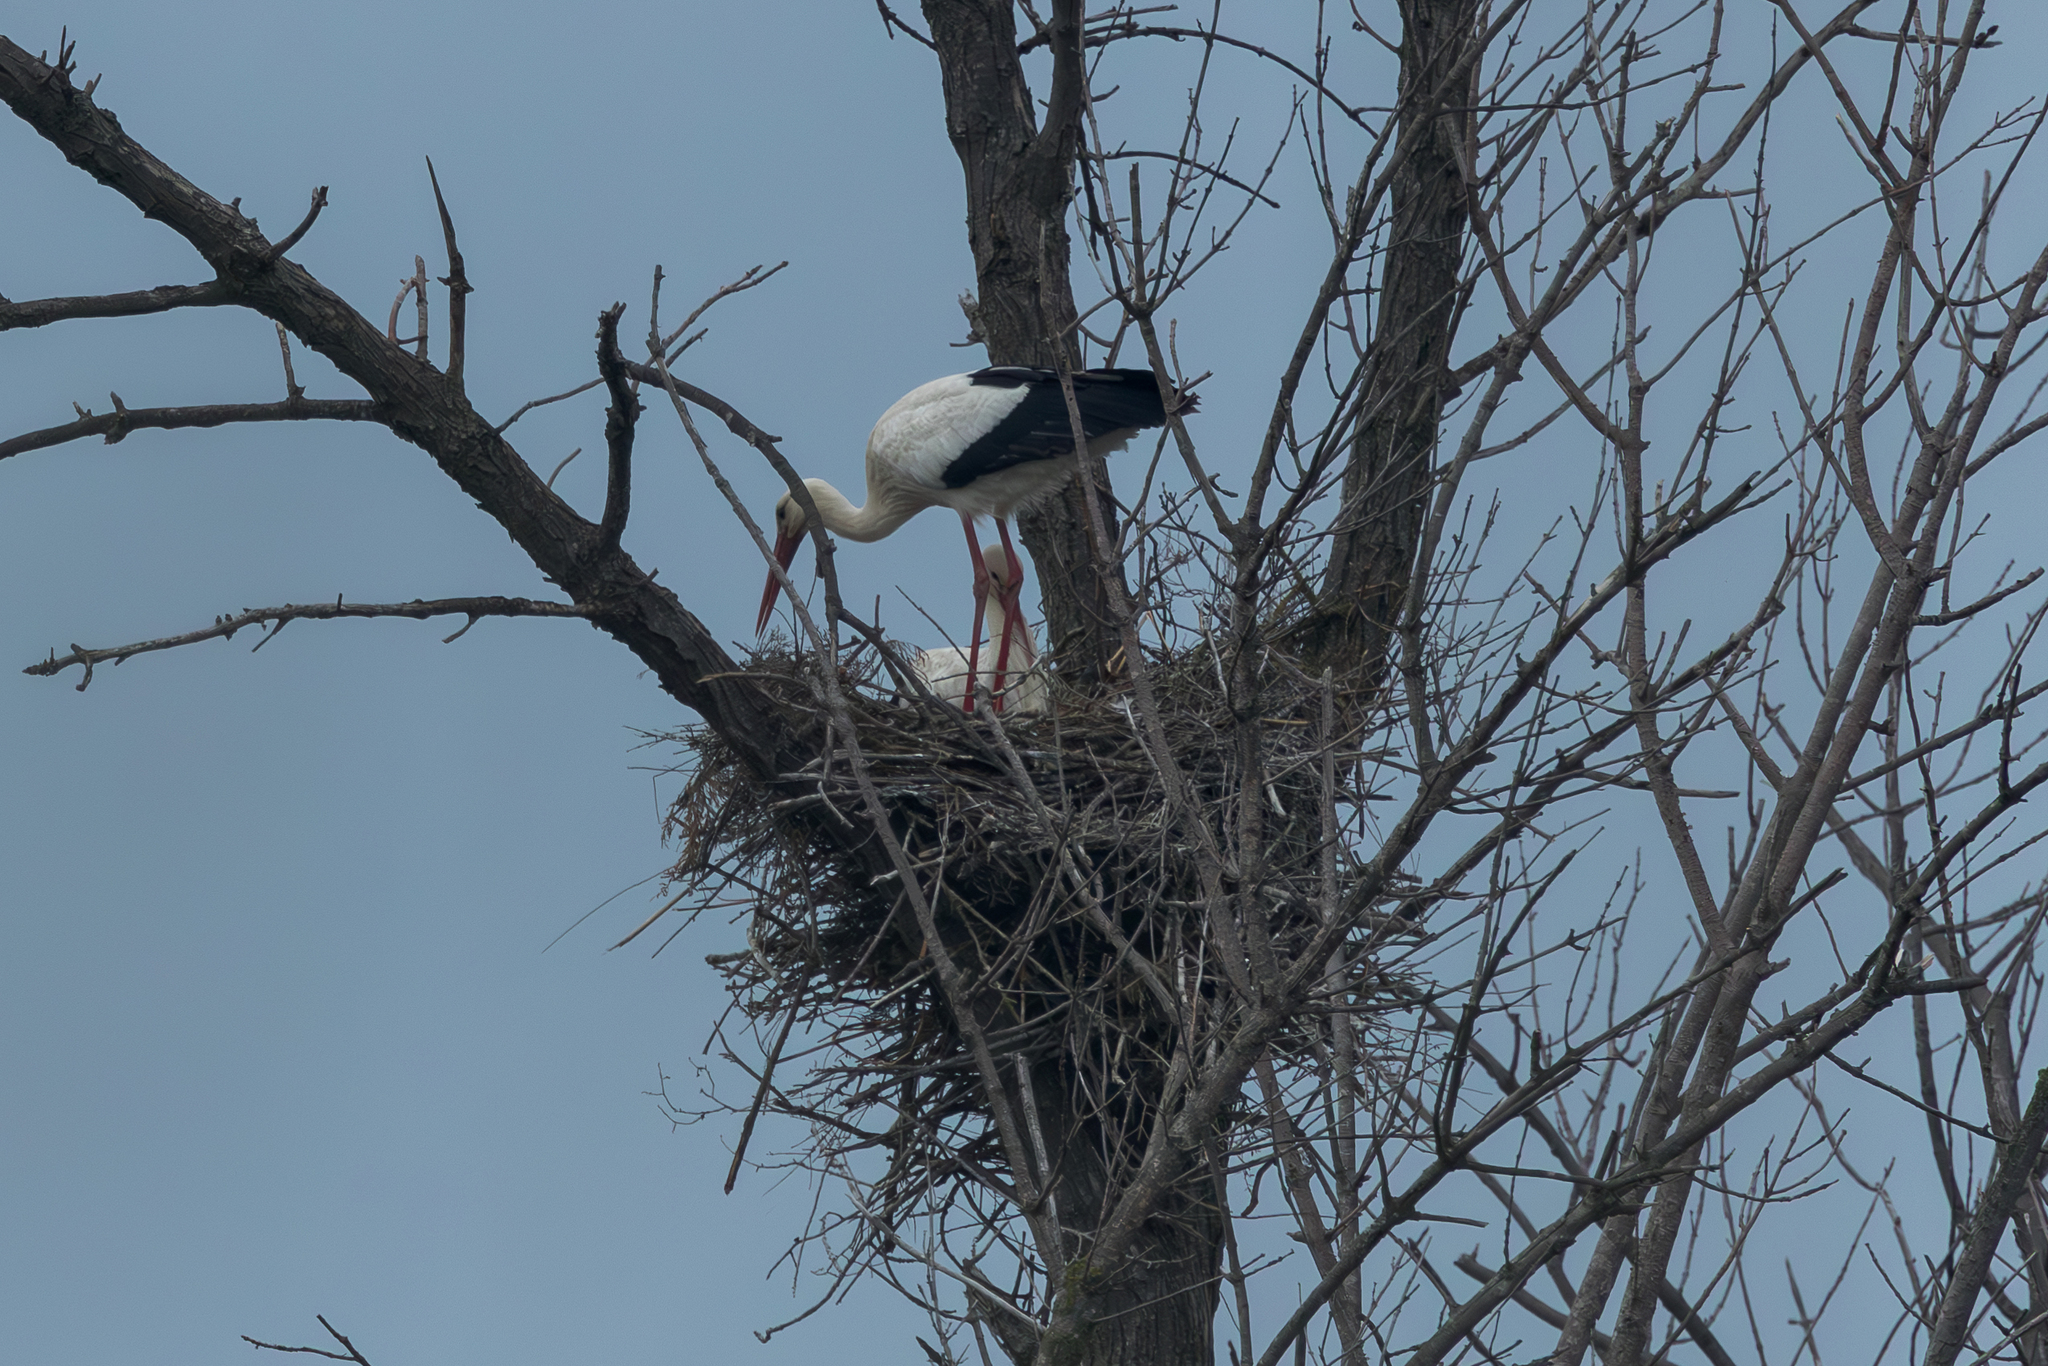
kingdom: Animalia
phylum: Chordata
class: Aves
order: Ciconiiformes
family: Ciconiidae
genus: Ciconia
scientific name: Ciconia ciconia
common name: White stork
